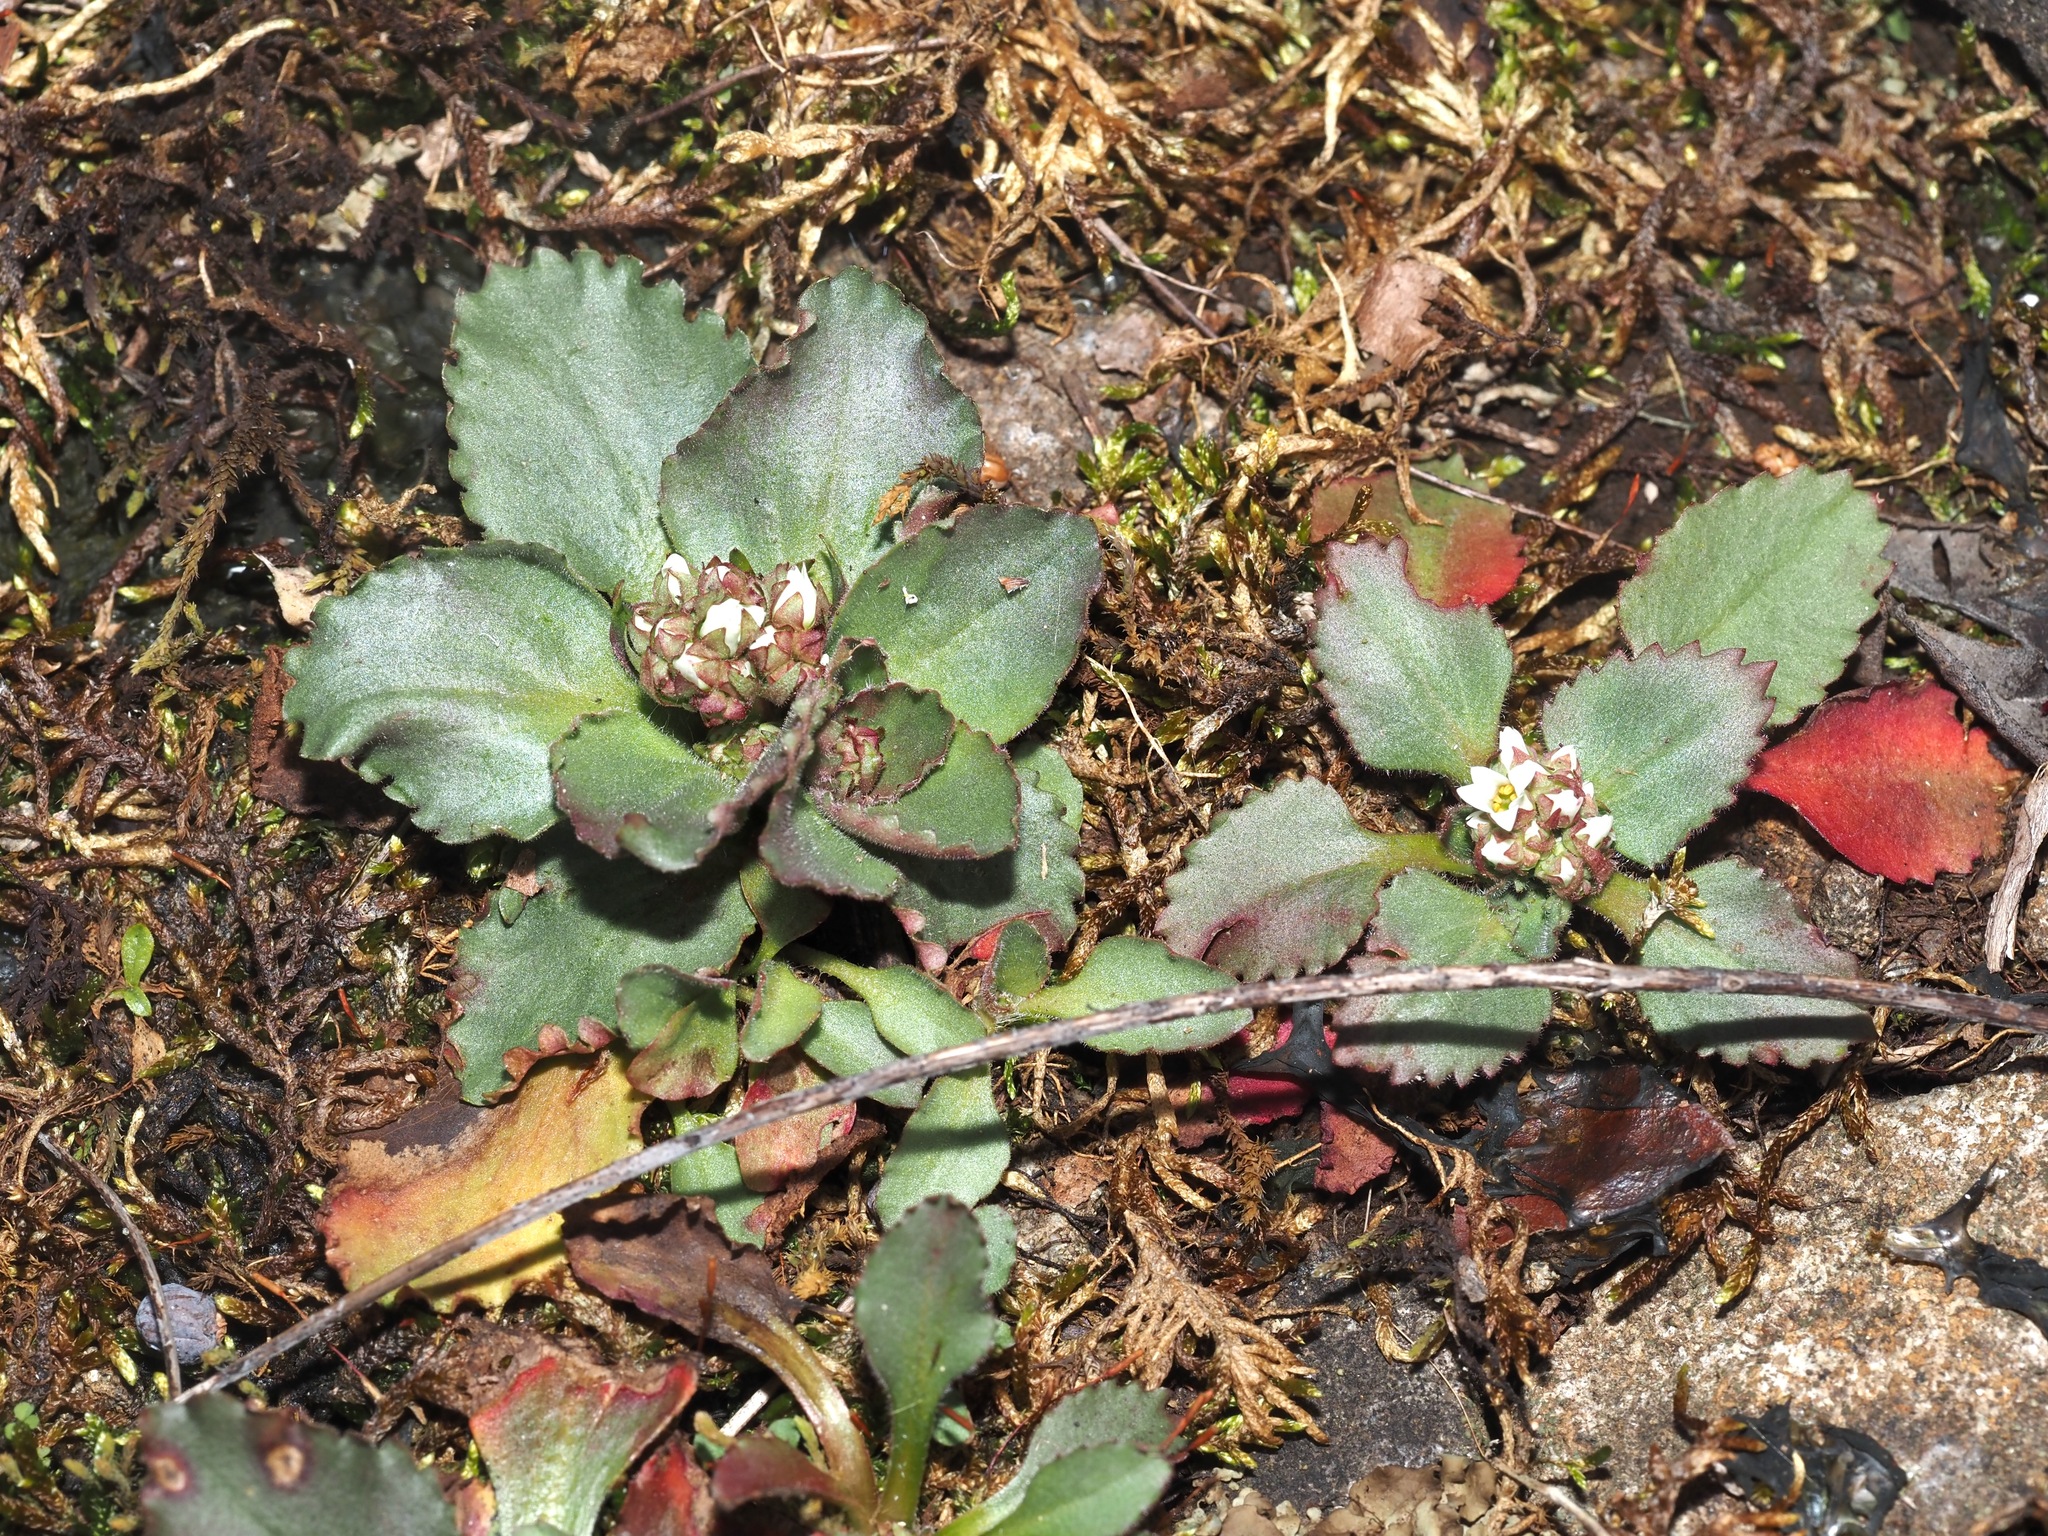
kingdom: Plantae
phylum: Tracheophyta
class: Magnoliopsida
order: Saxifragales
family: Saxifragaceae
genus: Micranthes
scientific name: Micranthes virginiensis
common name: Early saxifrage
